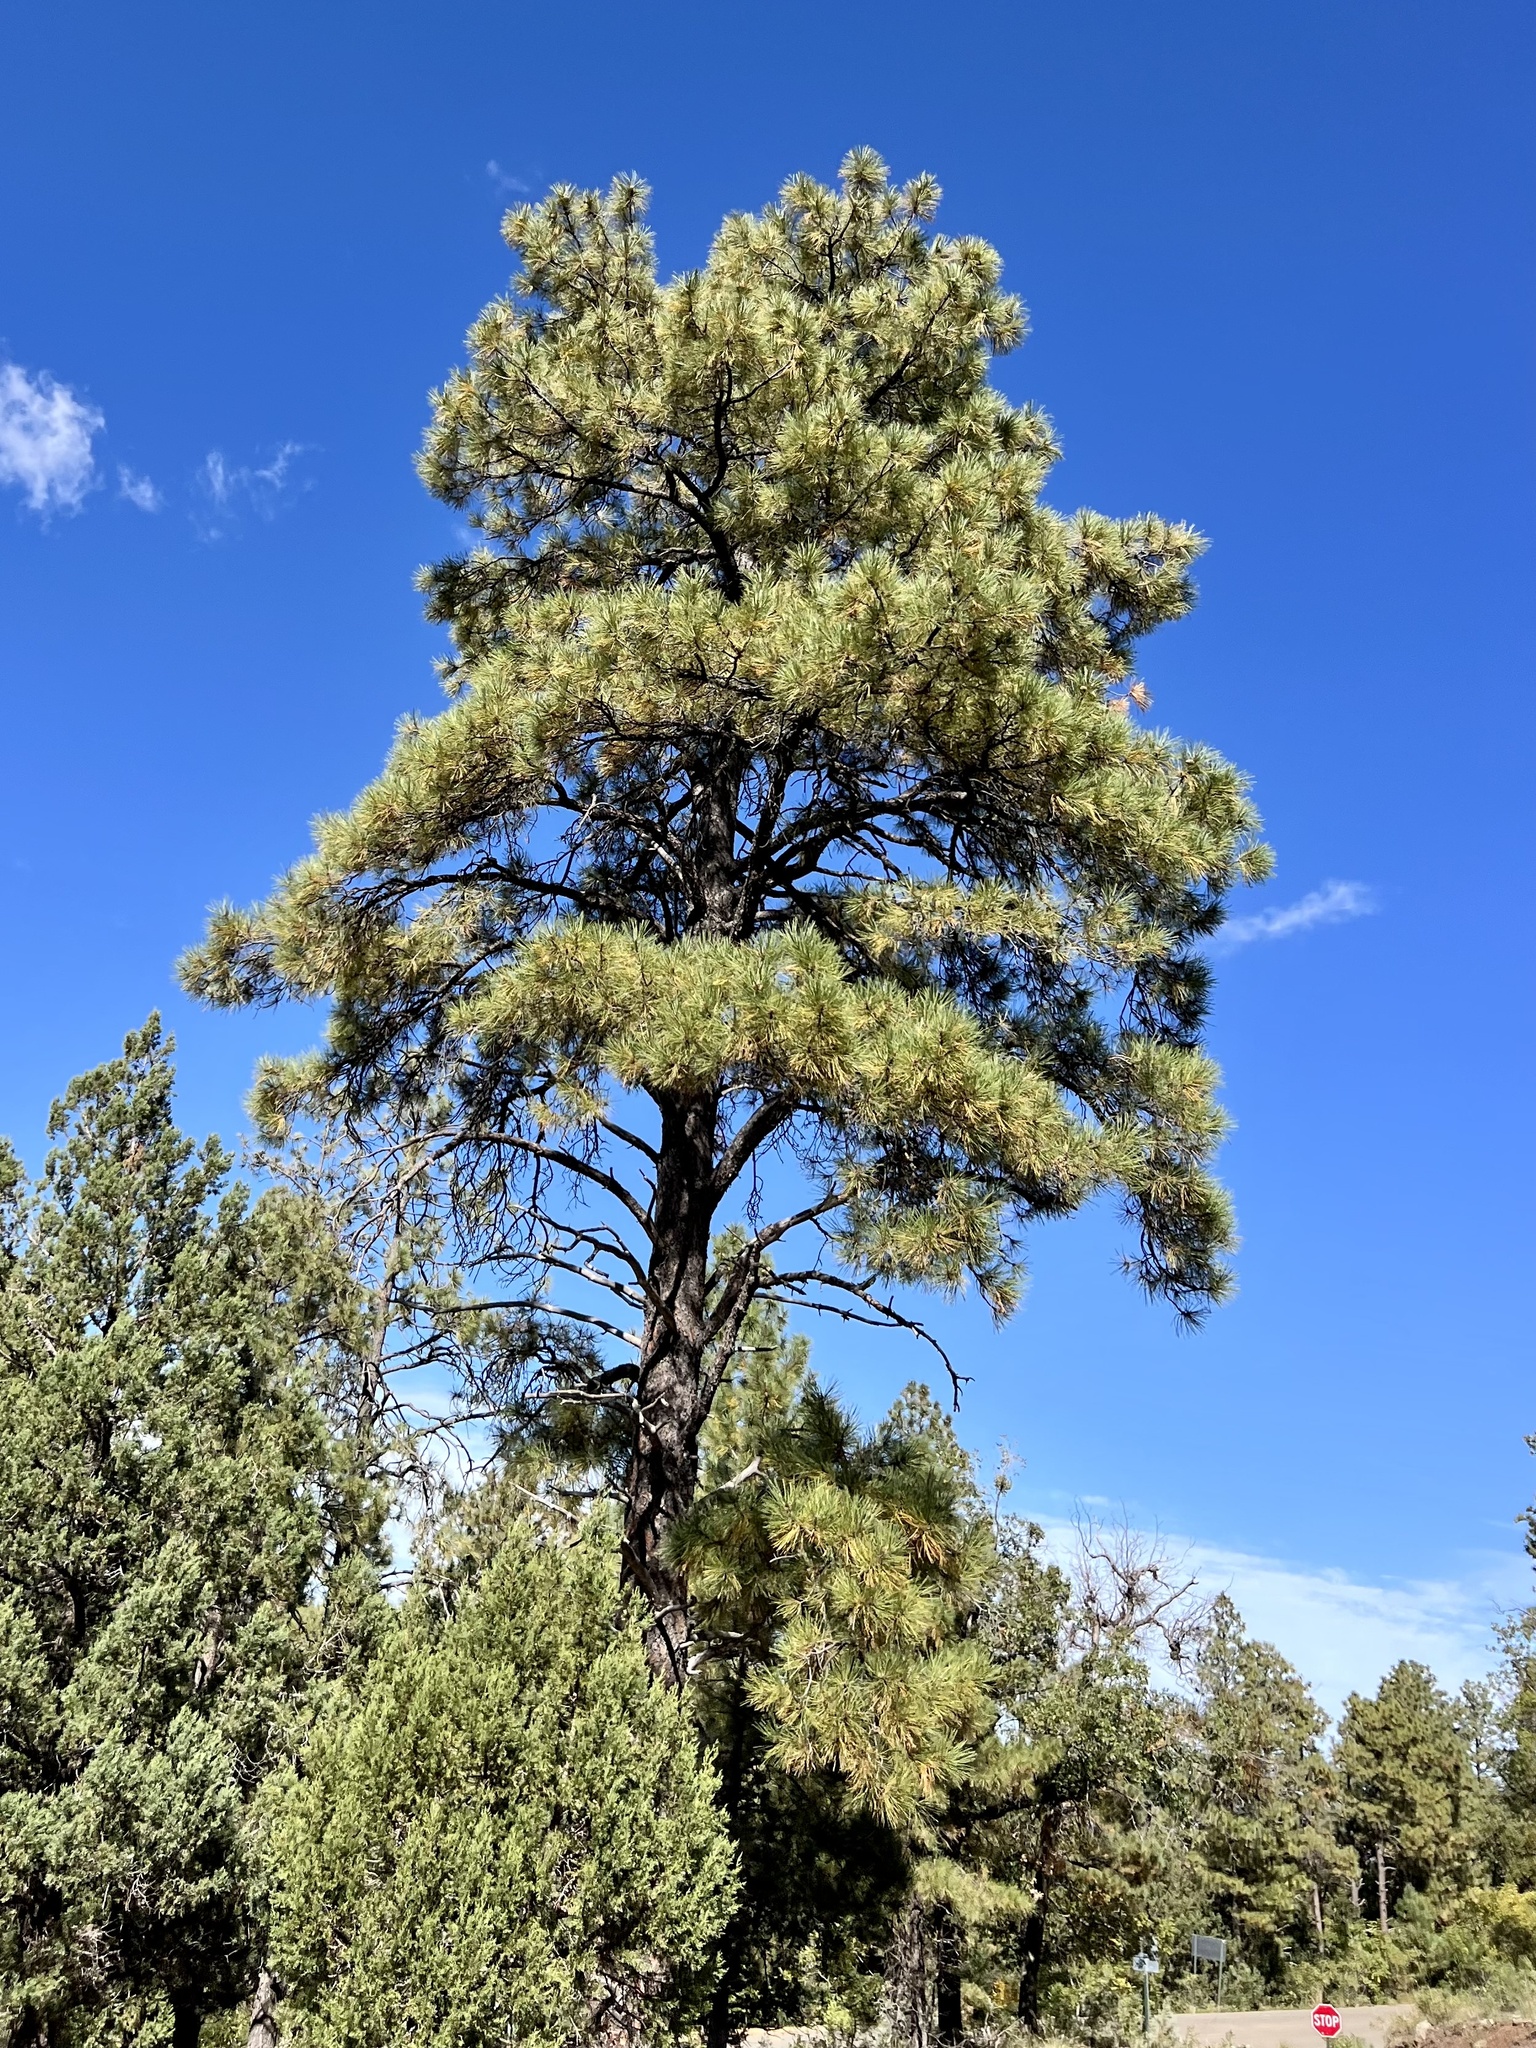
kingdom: Plantae
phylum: Tracheophyta
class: Pinopsida
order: Pinales
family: Pinaceae
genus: Pinus
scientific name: Pinus ponderosa
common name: Western yellow-pine
